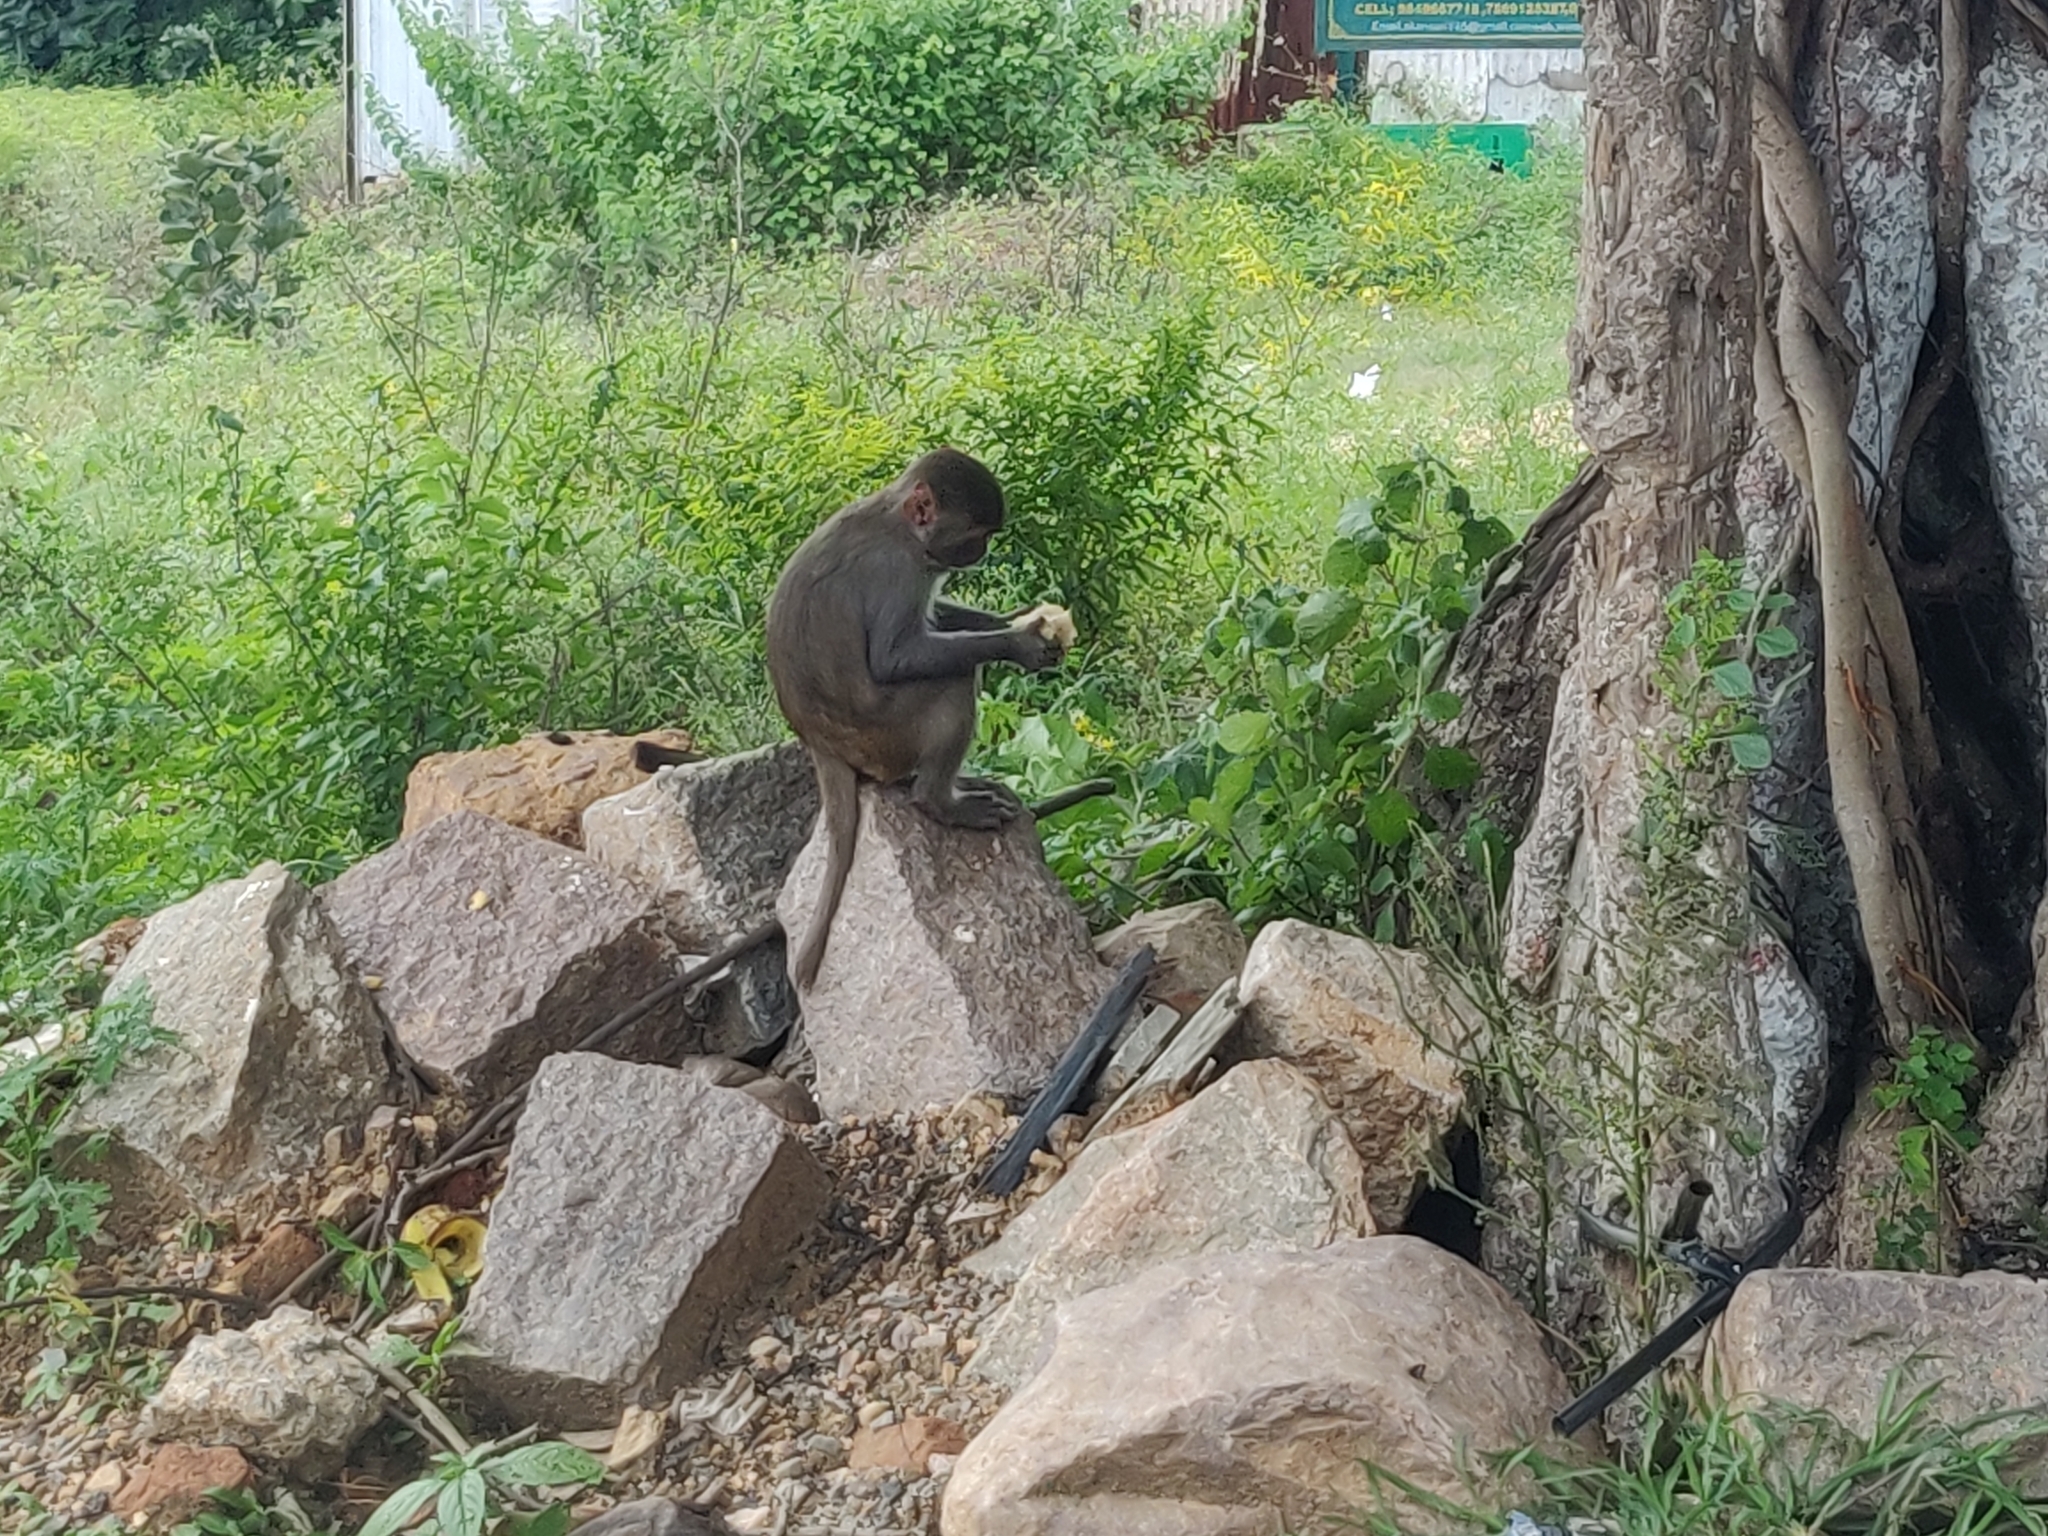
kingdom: Animalia
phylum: Chordata
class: Mammalia
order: Primates
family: Cercopithecidae
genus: Macaca
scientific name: Macaca mulatta
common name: Rhesus monkey
